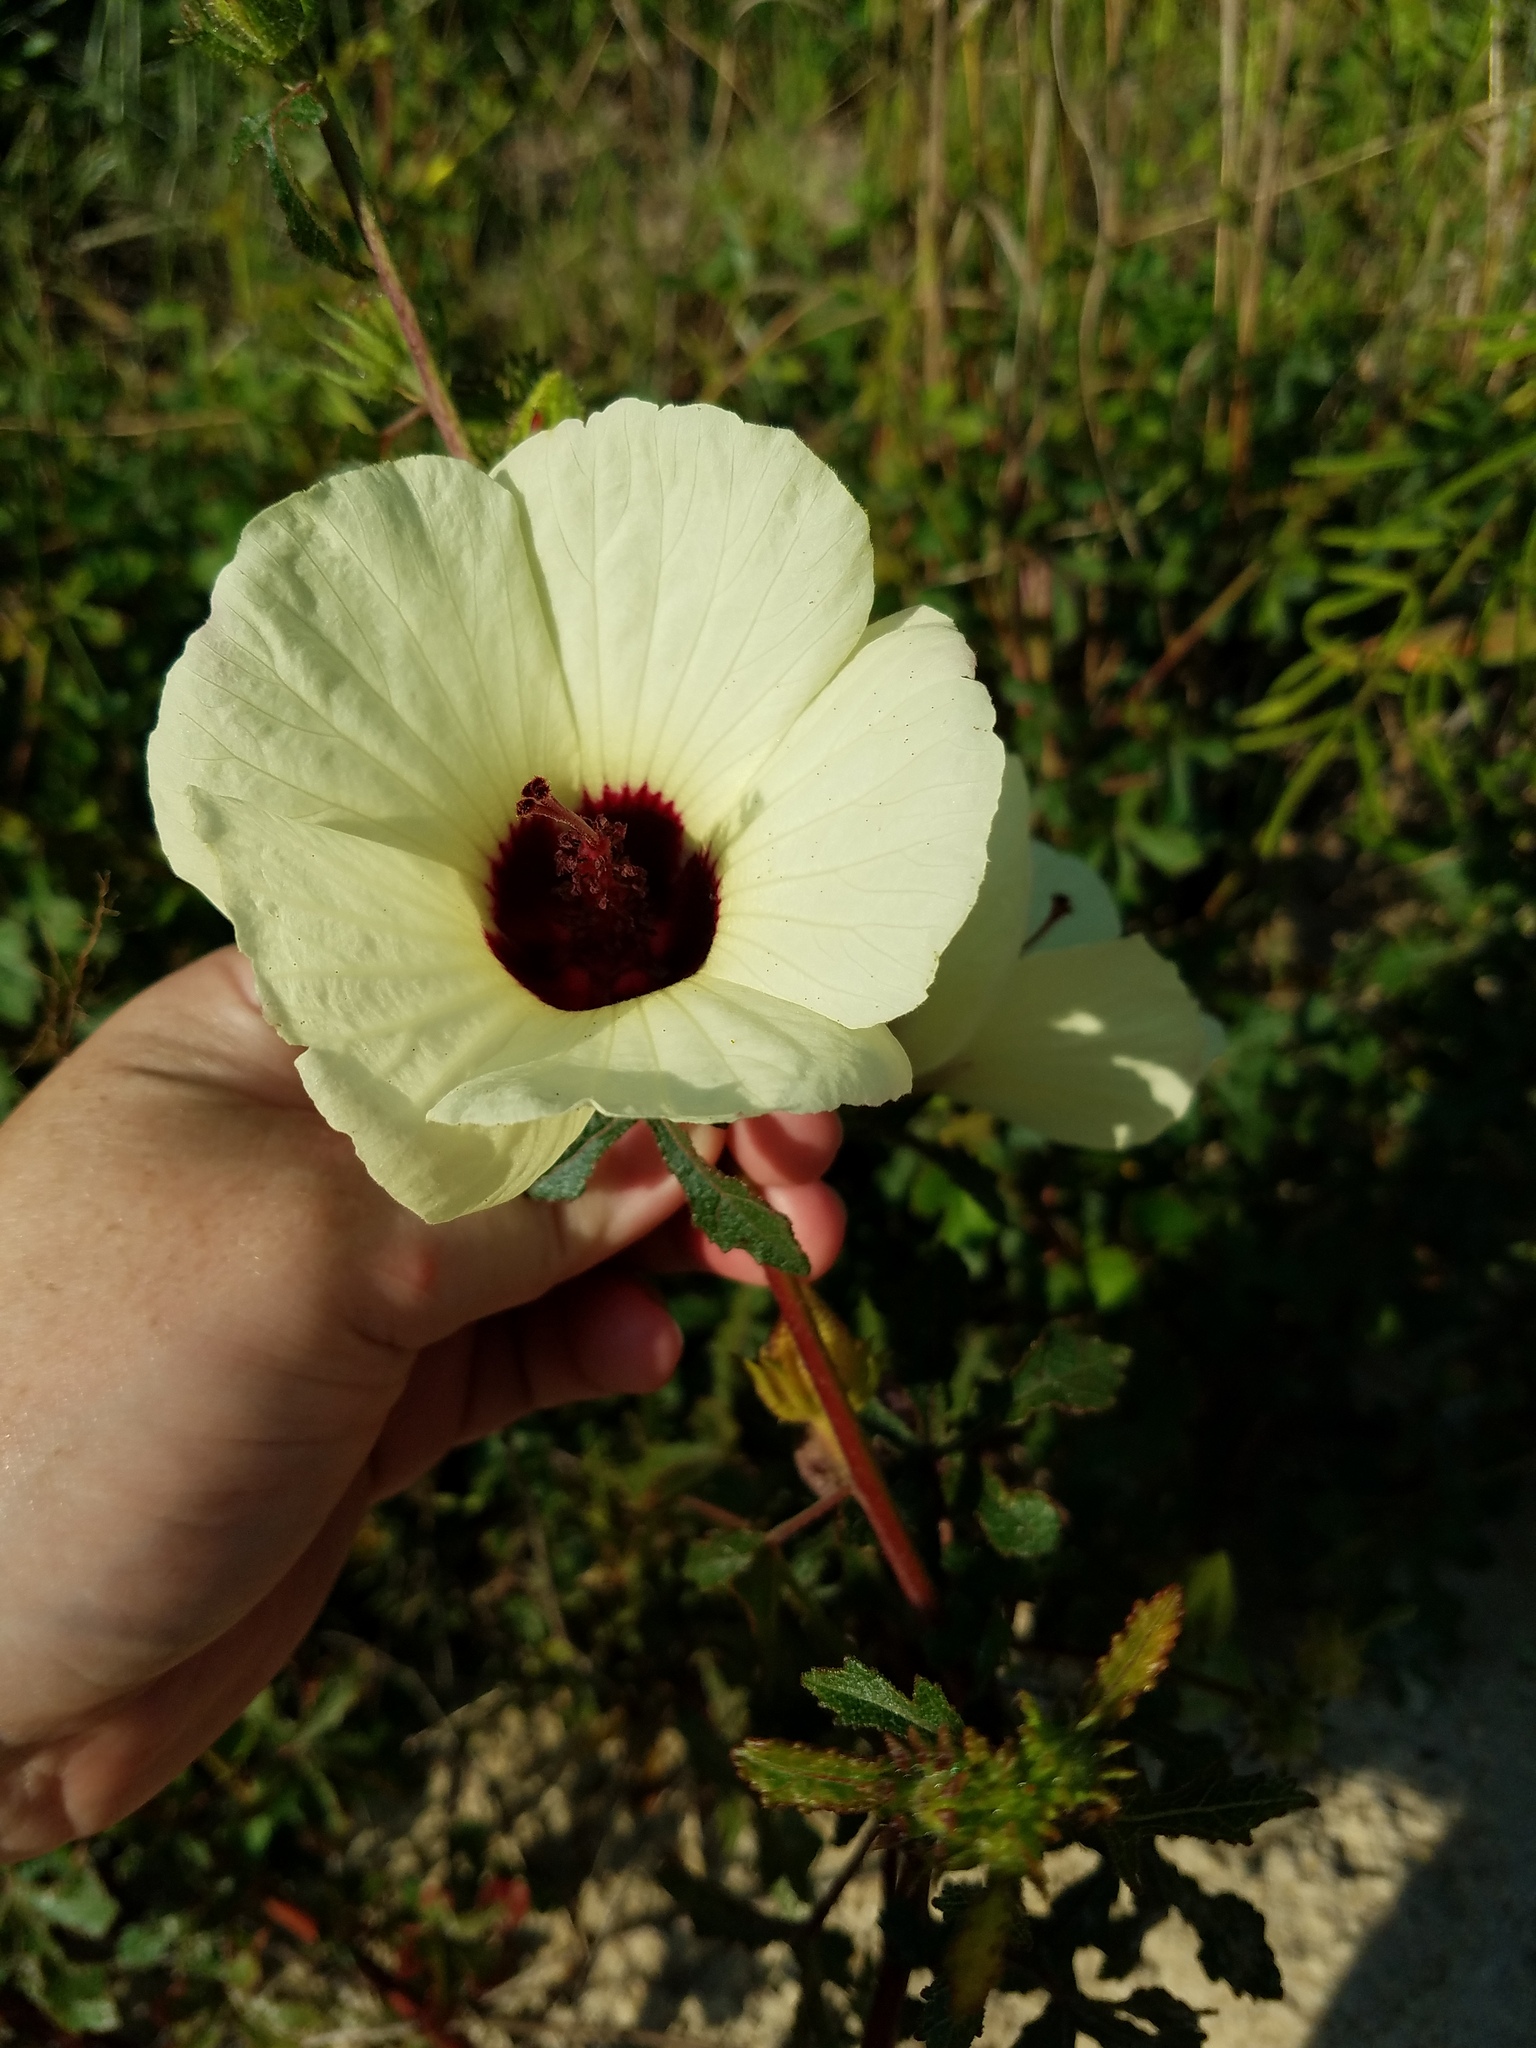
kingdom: Plantae
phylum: Tracheophyta
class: Magnoliopsida
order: Malvales
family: Malvaceae
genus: Hibiscus
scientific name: Hibiscus aculeatus
